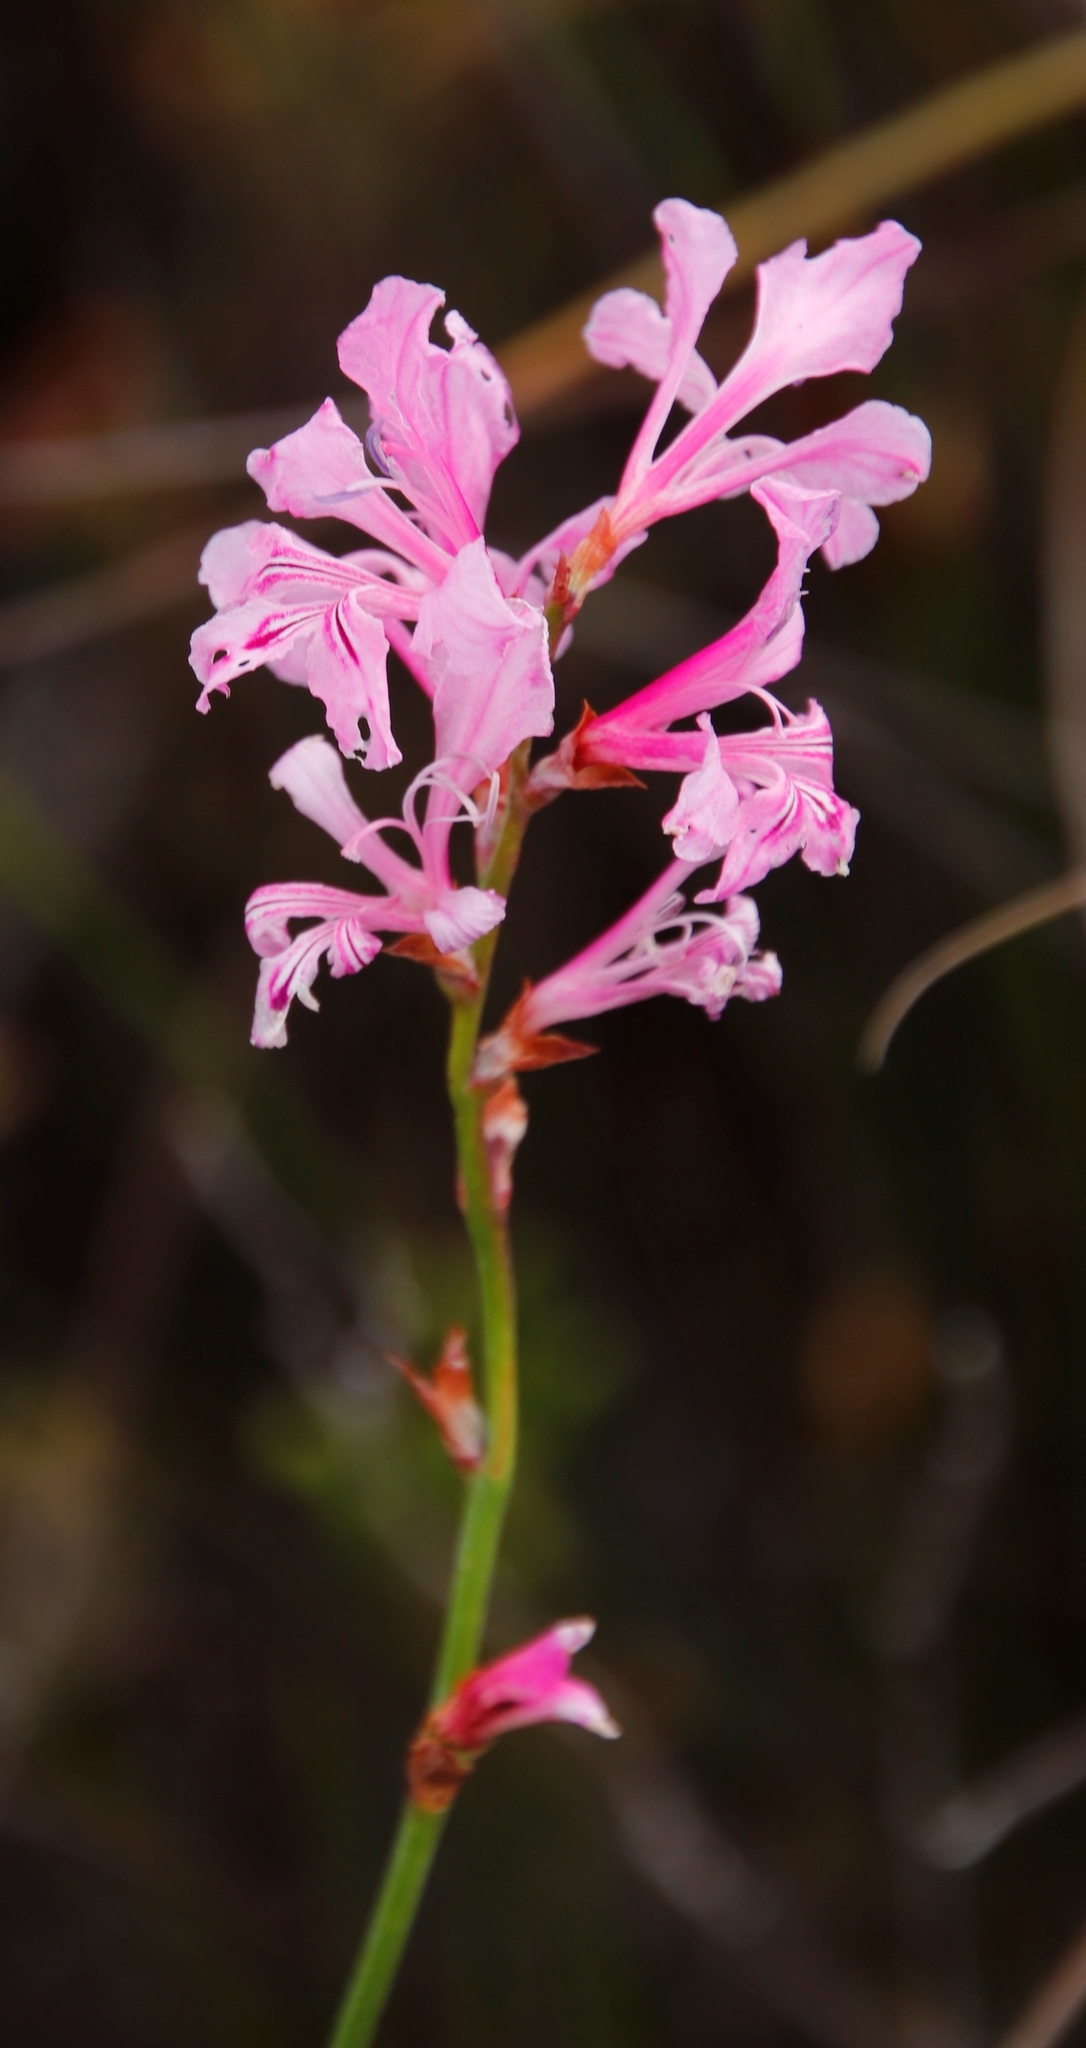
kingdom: Plantae
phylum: Tracheophyta
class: Liliopsida
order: Asparagales
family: Iridaceae
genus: Tritoniopsis
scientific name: Tritoniopsis lata
